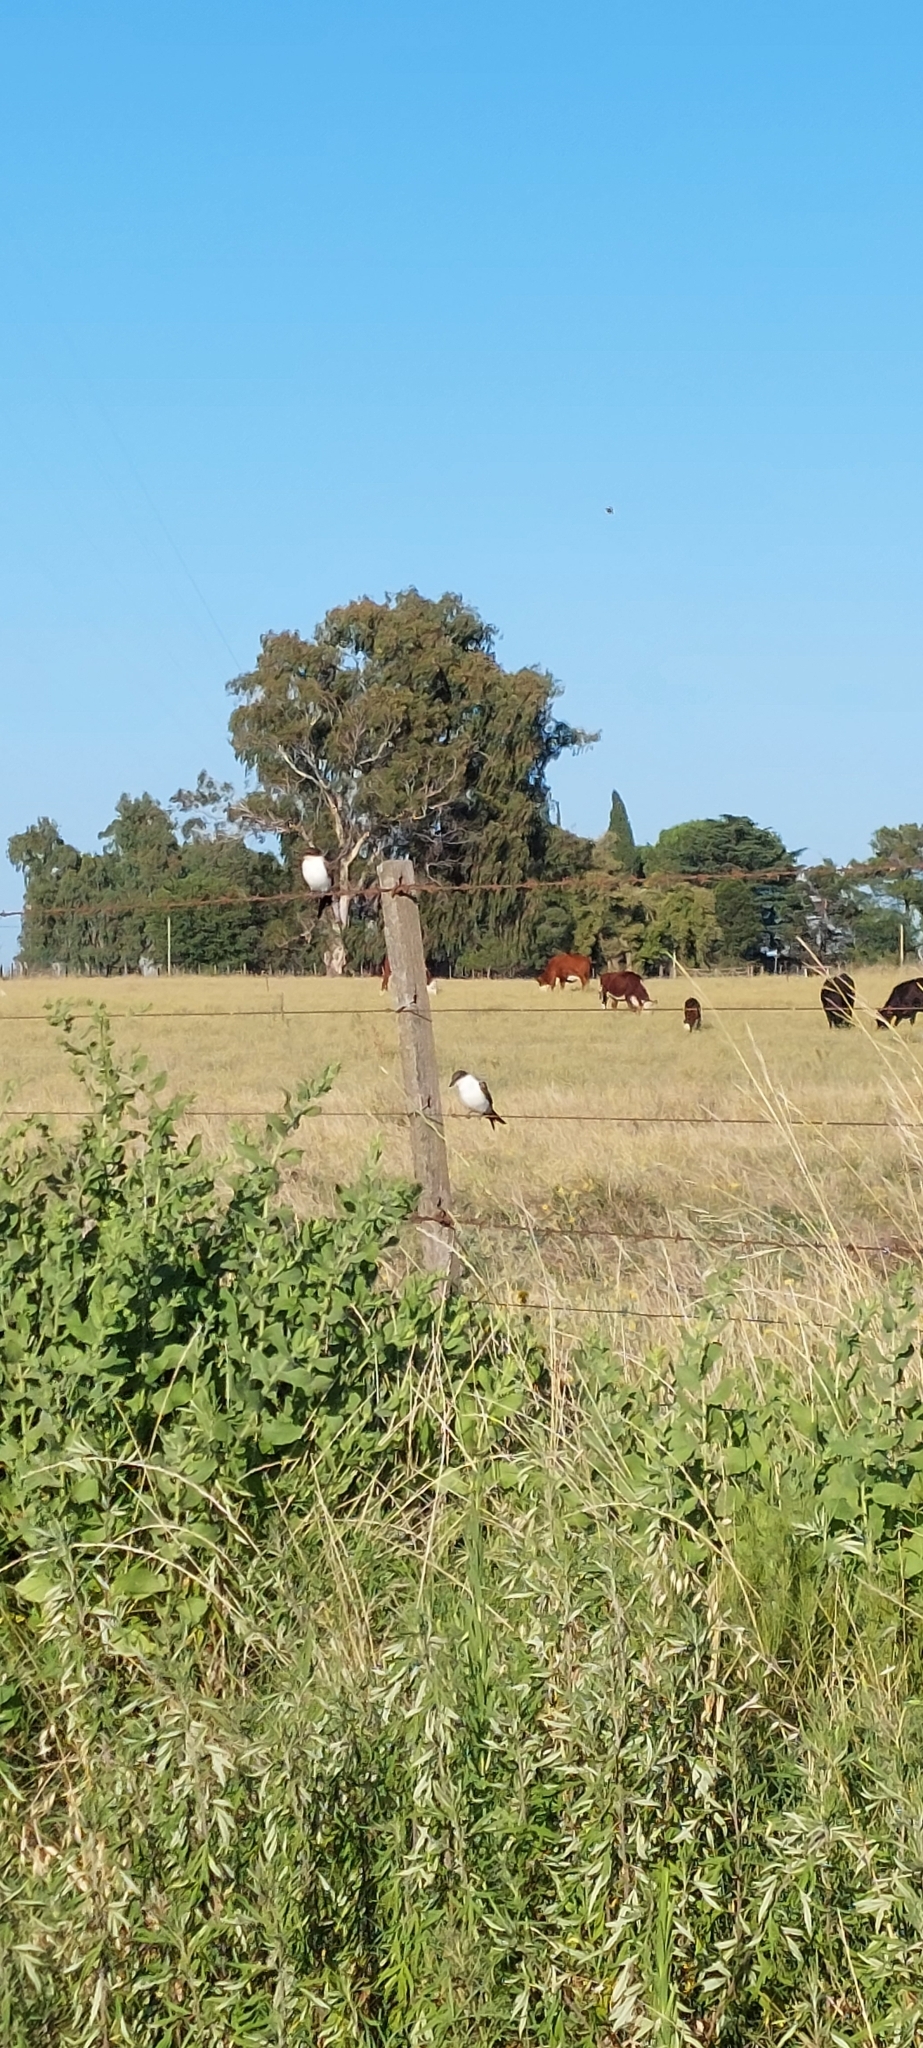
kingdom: Animalia
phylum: Chordata
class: Aves
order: Passeriformes
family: Tyrannidae
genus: Tyrannus
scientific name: Tyrannus savana
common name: Fork-tailed flycatcher
